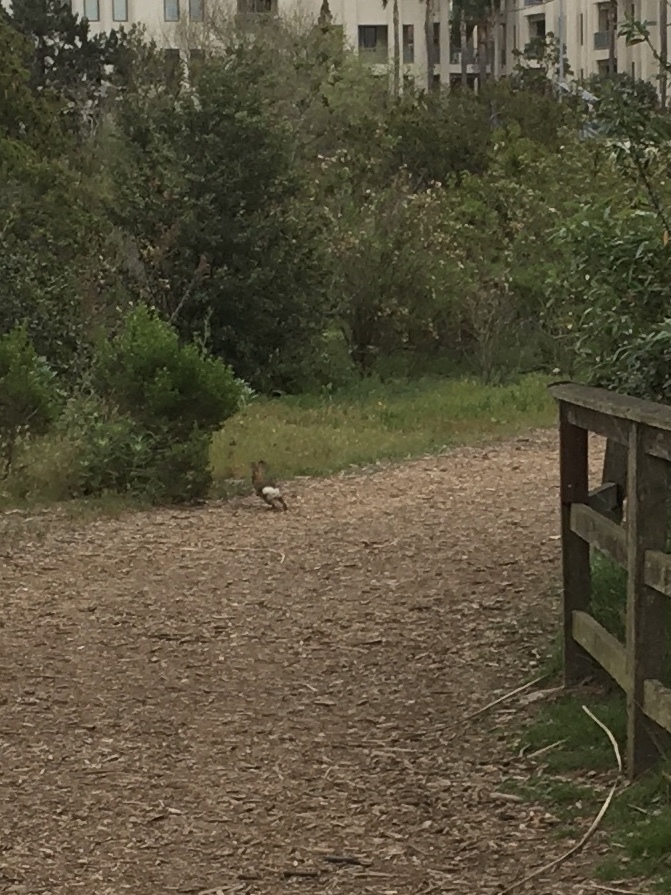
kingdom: Animalia
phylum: Chordata
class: Mammalia
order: Lagomorpha
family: Leporidae
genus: Sylvilagus
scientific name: Sylvilagus audubonii
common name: Desert cottontail
